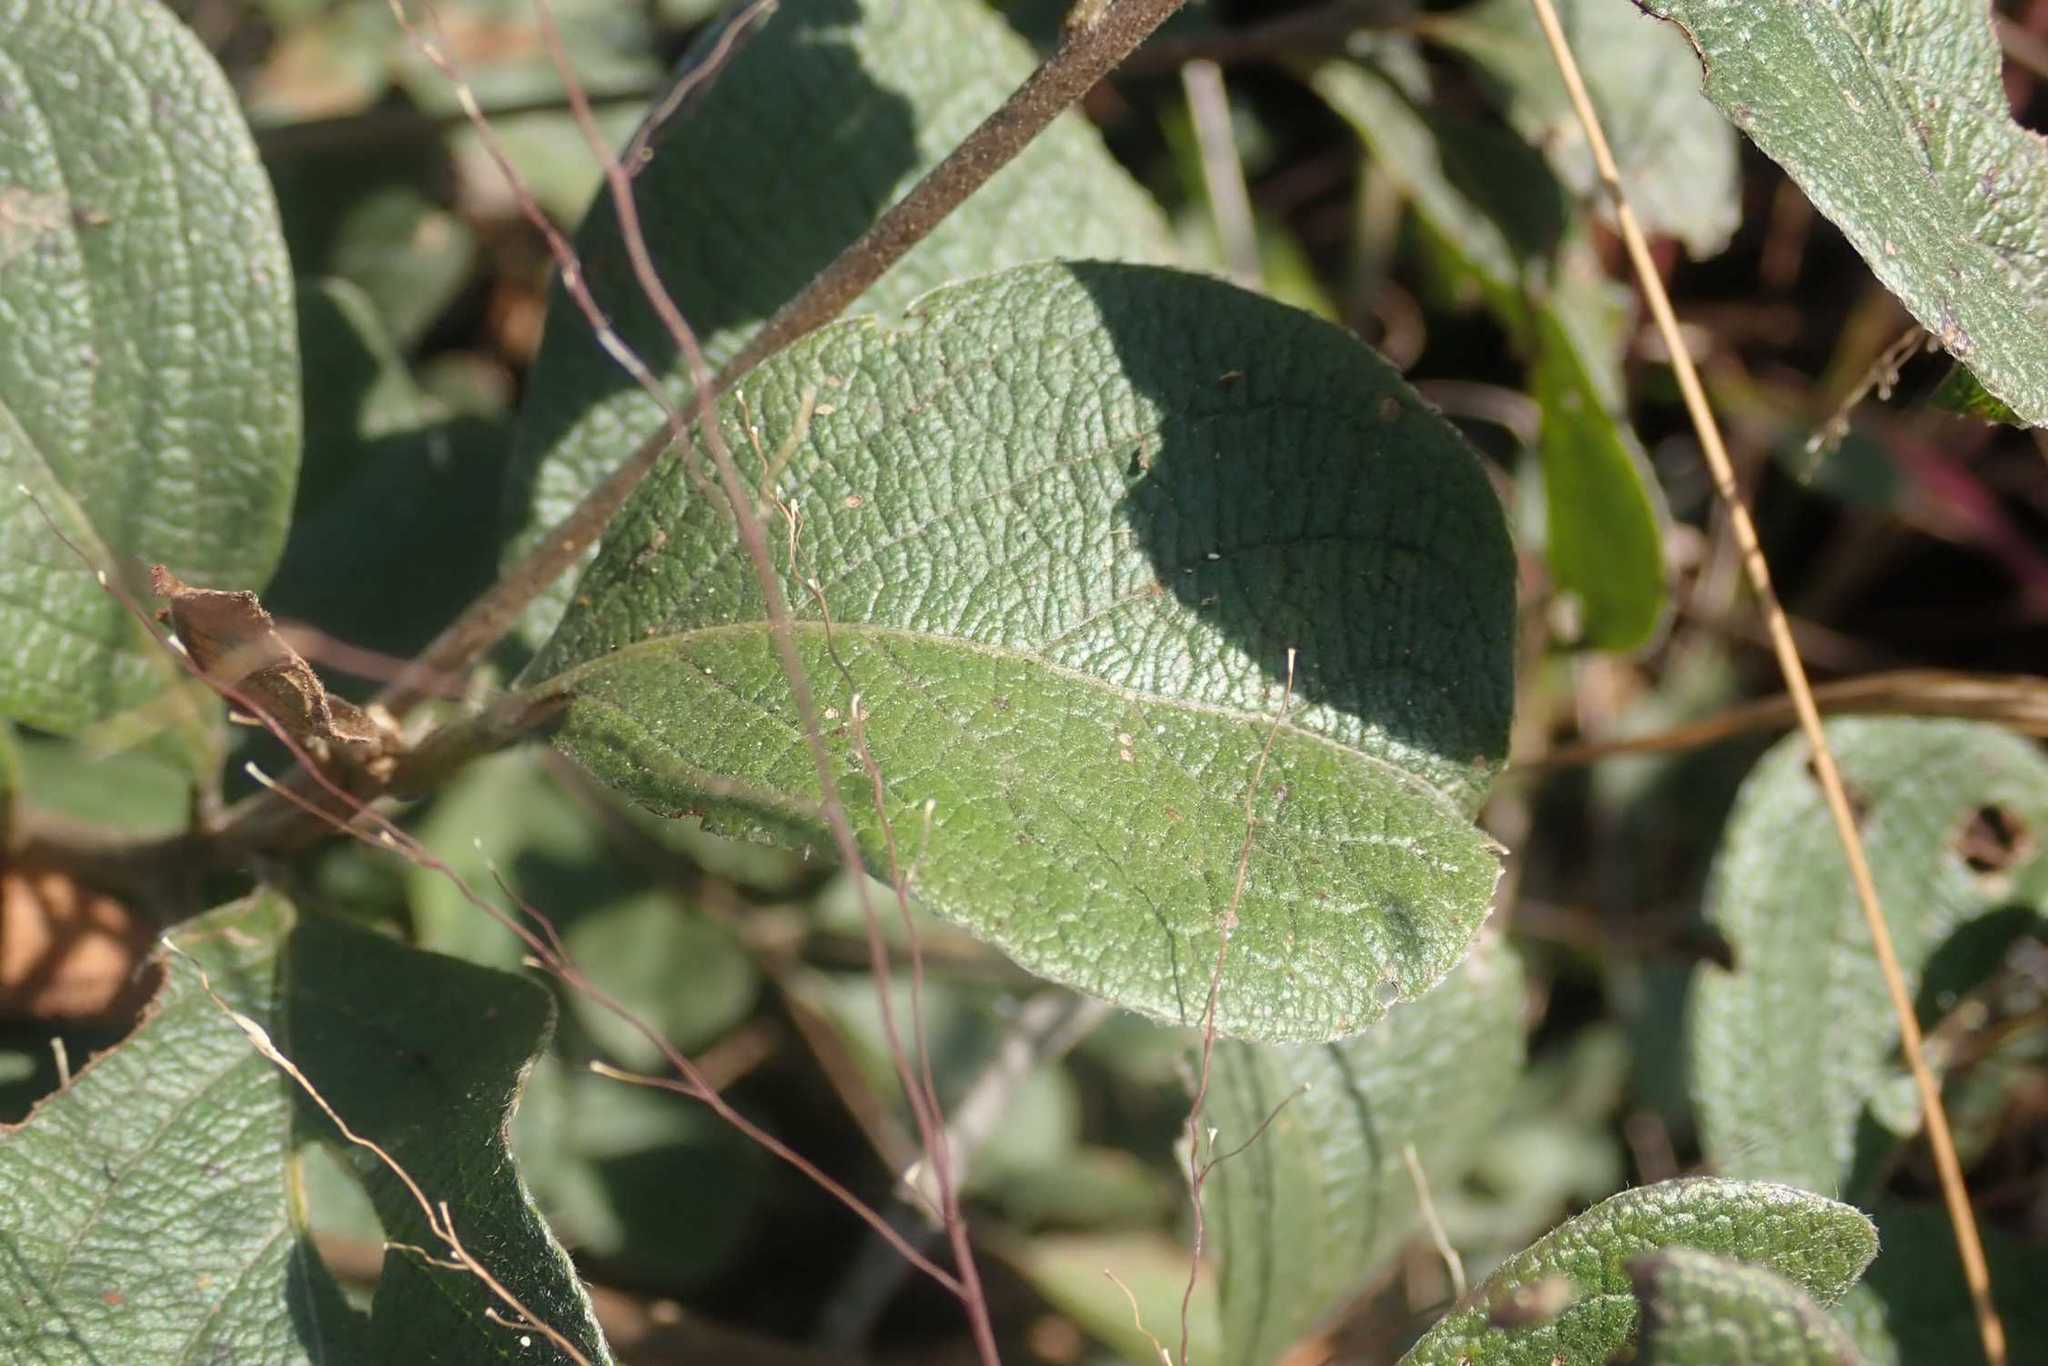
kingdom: Plantae
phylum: Tracheophyta
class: Magnoliopsida
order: Myrtales
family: Combretaceae
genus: Terminalia
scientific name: Terminalia phanerophlebia
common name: Lebombo cluster-leaf
